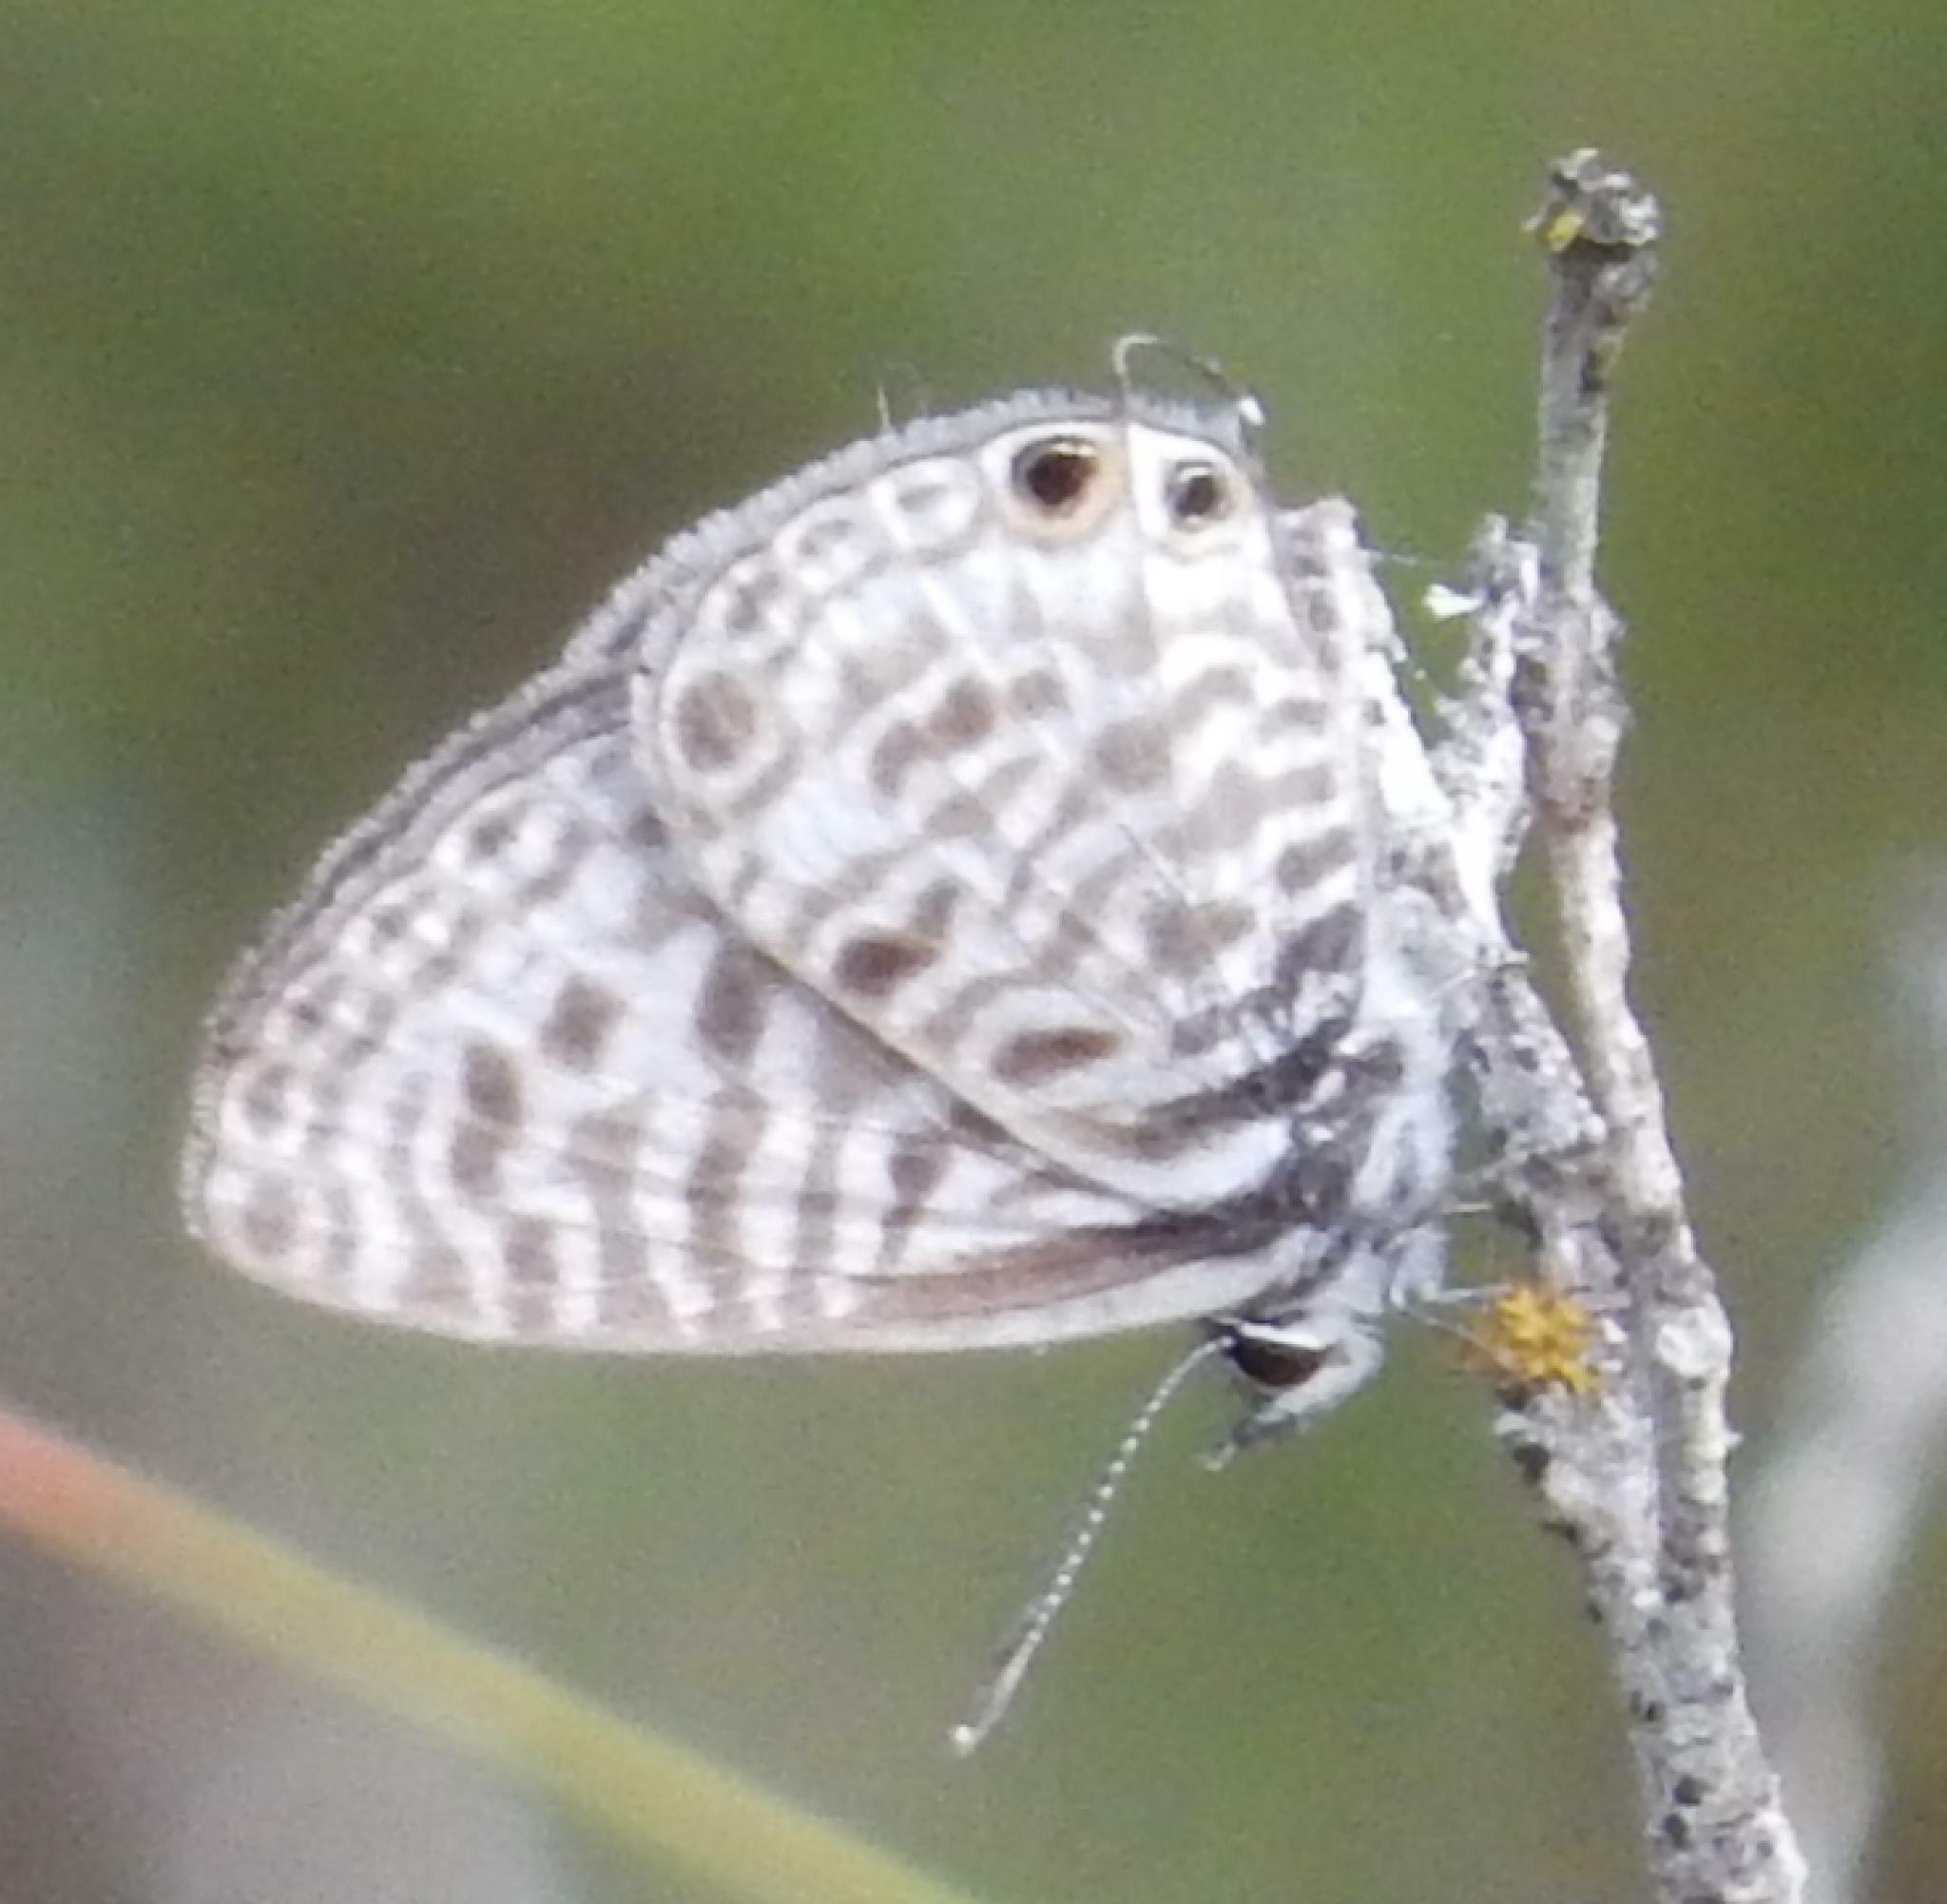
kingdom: Animalia
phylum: Arthropoda
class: Insecta
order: Lepidoptera
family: Lycaenidae
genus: Leptotes
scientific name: Leptotes
